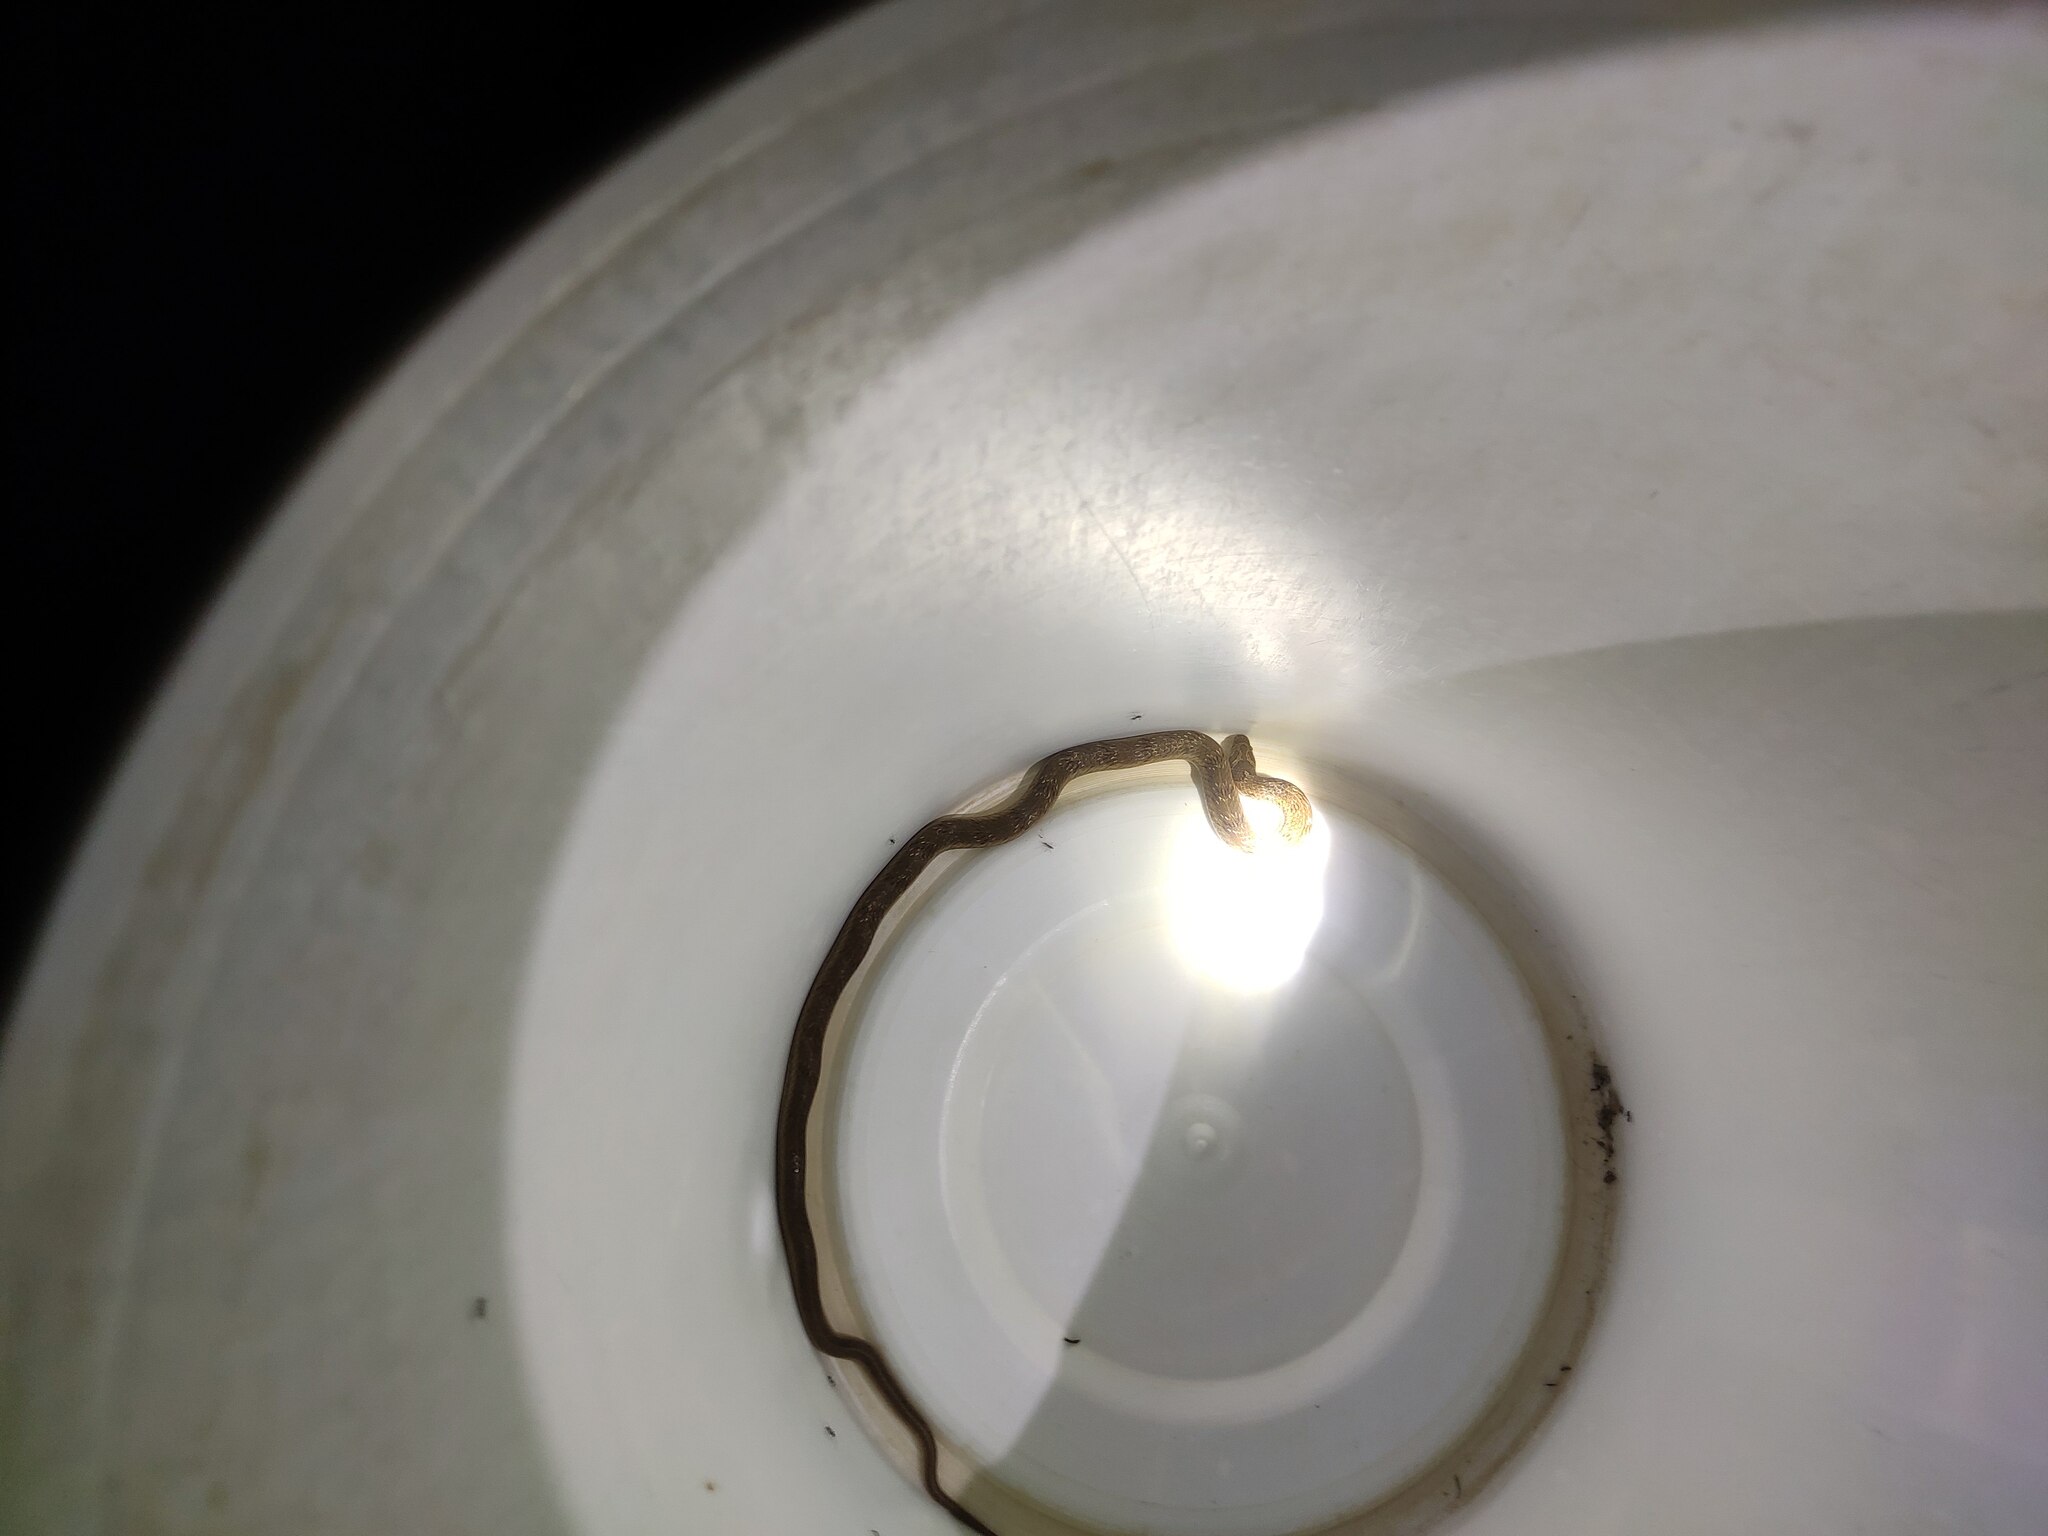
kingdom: Animalia
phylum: Chordata
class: Squamata
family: Colubridae
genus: Oligodon
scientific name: Oligodon taeniolatus
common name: Loos snake
